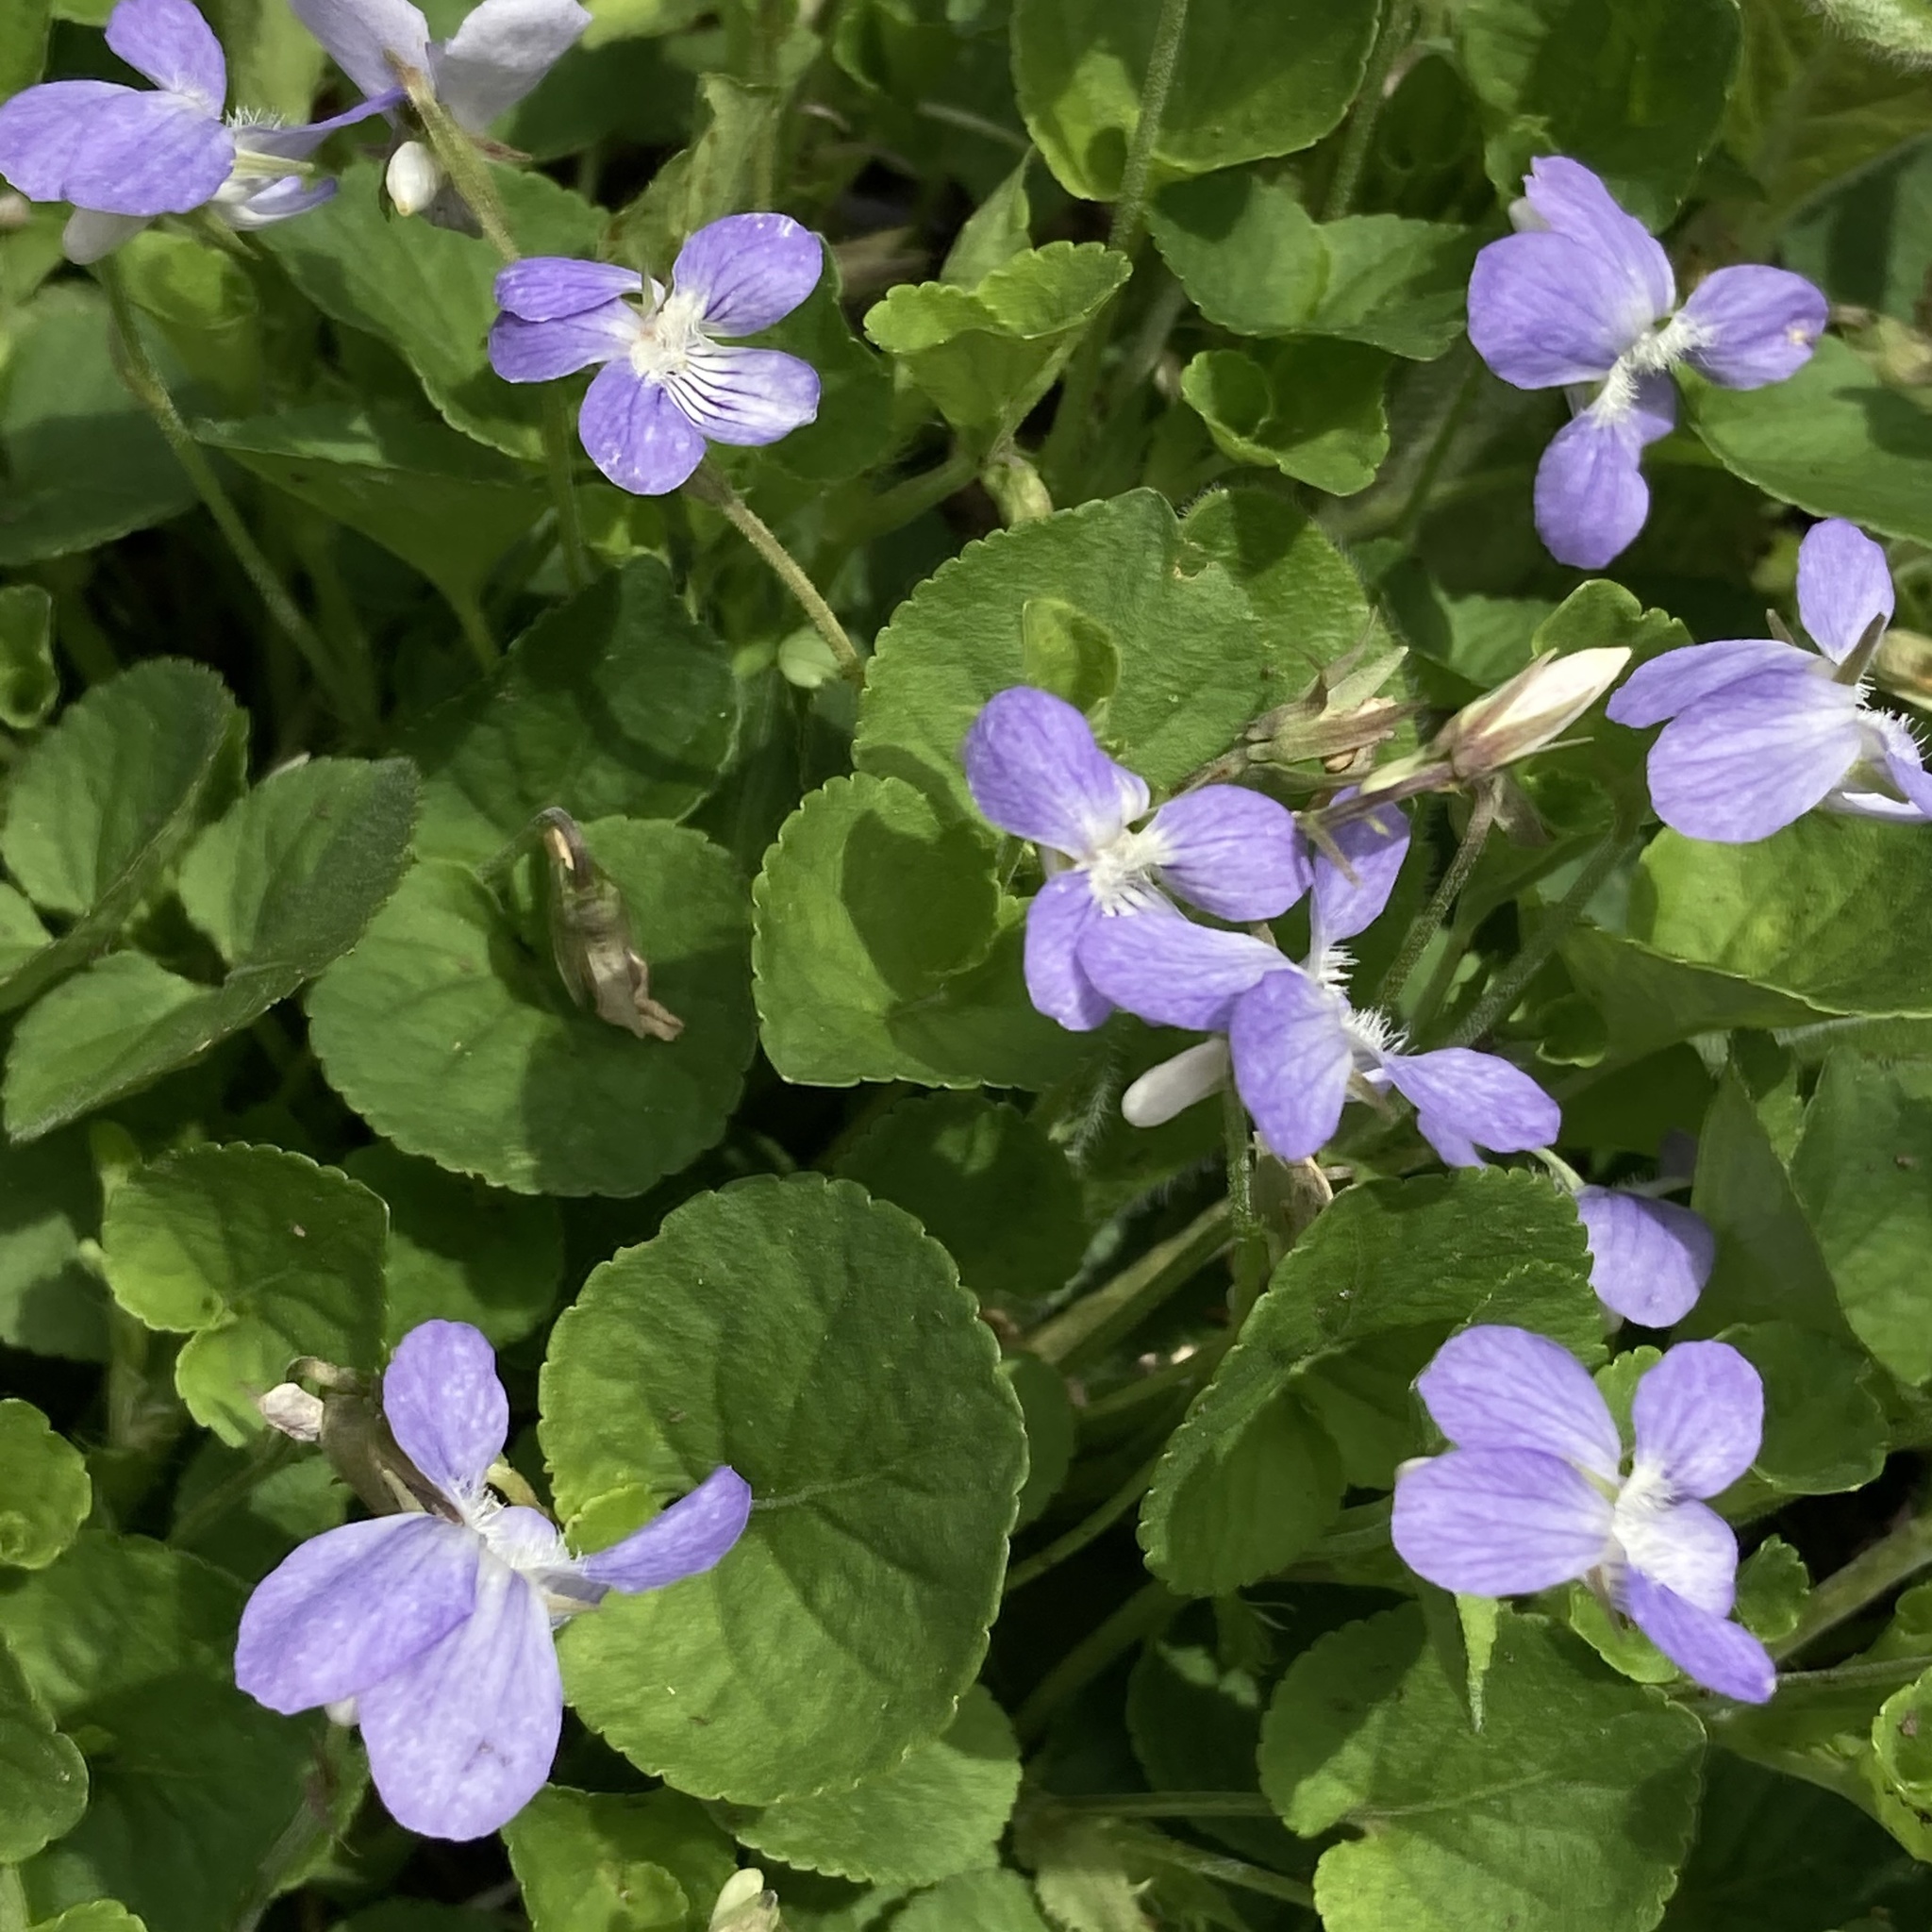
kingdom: Plantae
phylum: Tracheophyta
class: Magnoliopsida
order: Malpighiales
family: Violaceae
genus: Viola
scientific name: Viola walteri
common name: Prostrate southern violet
